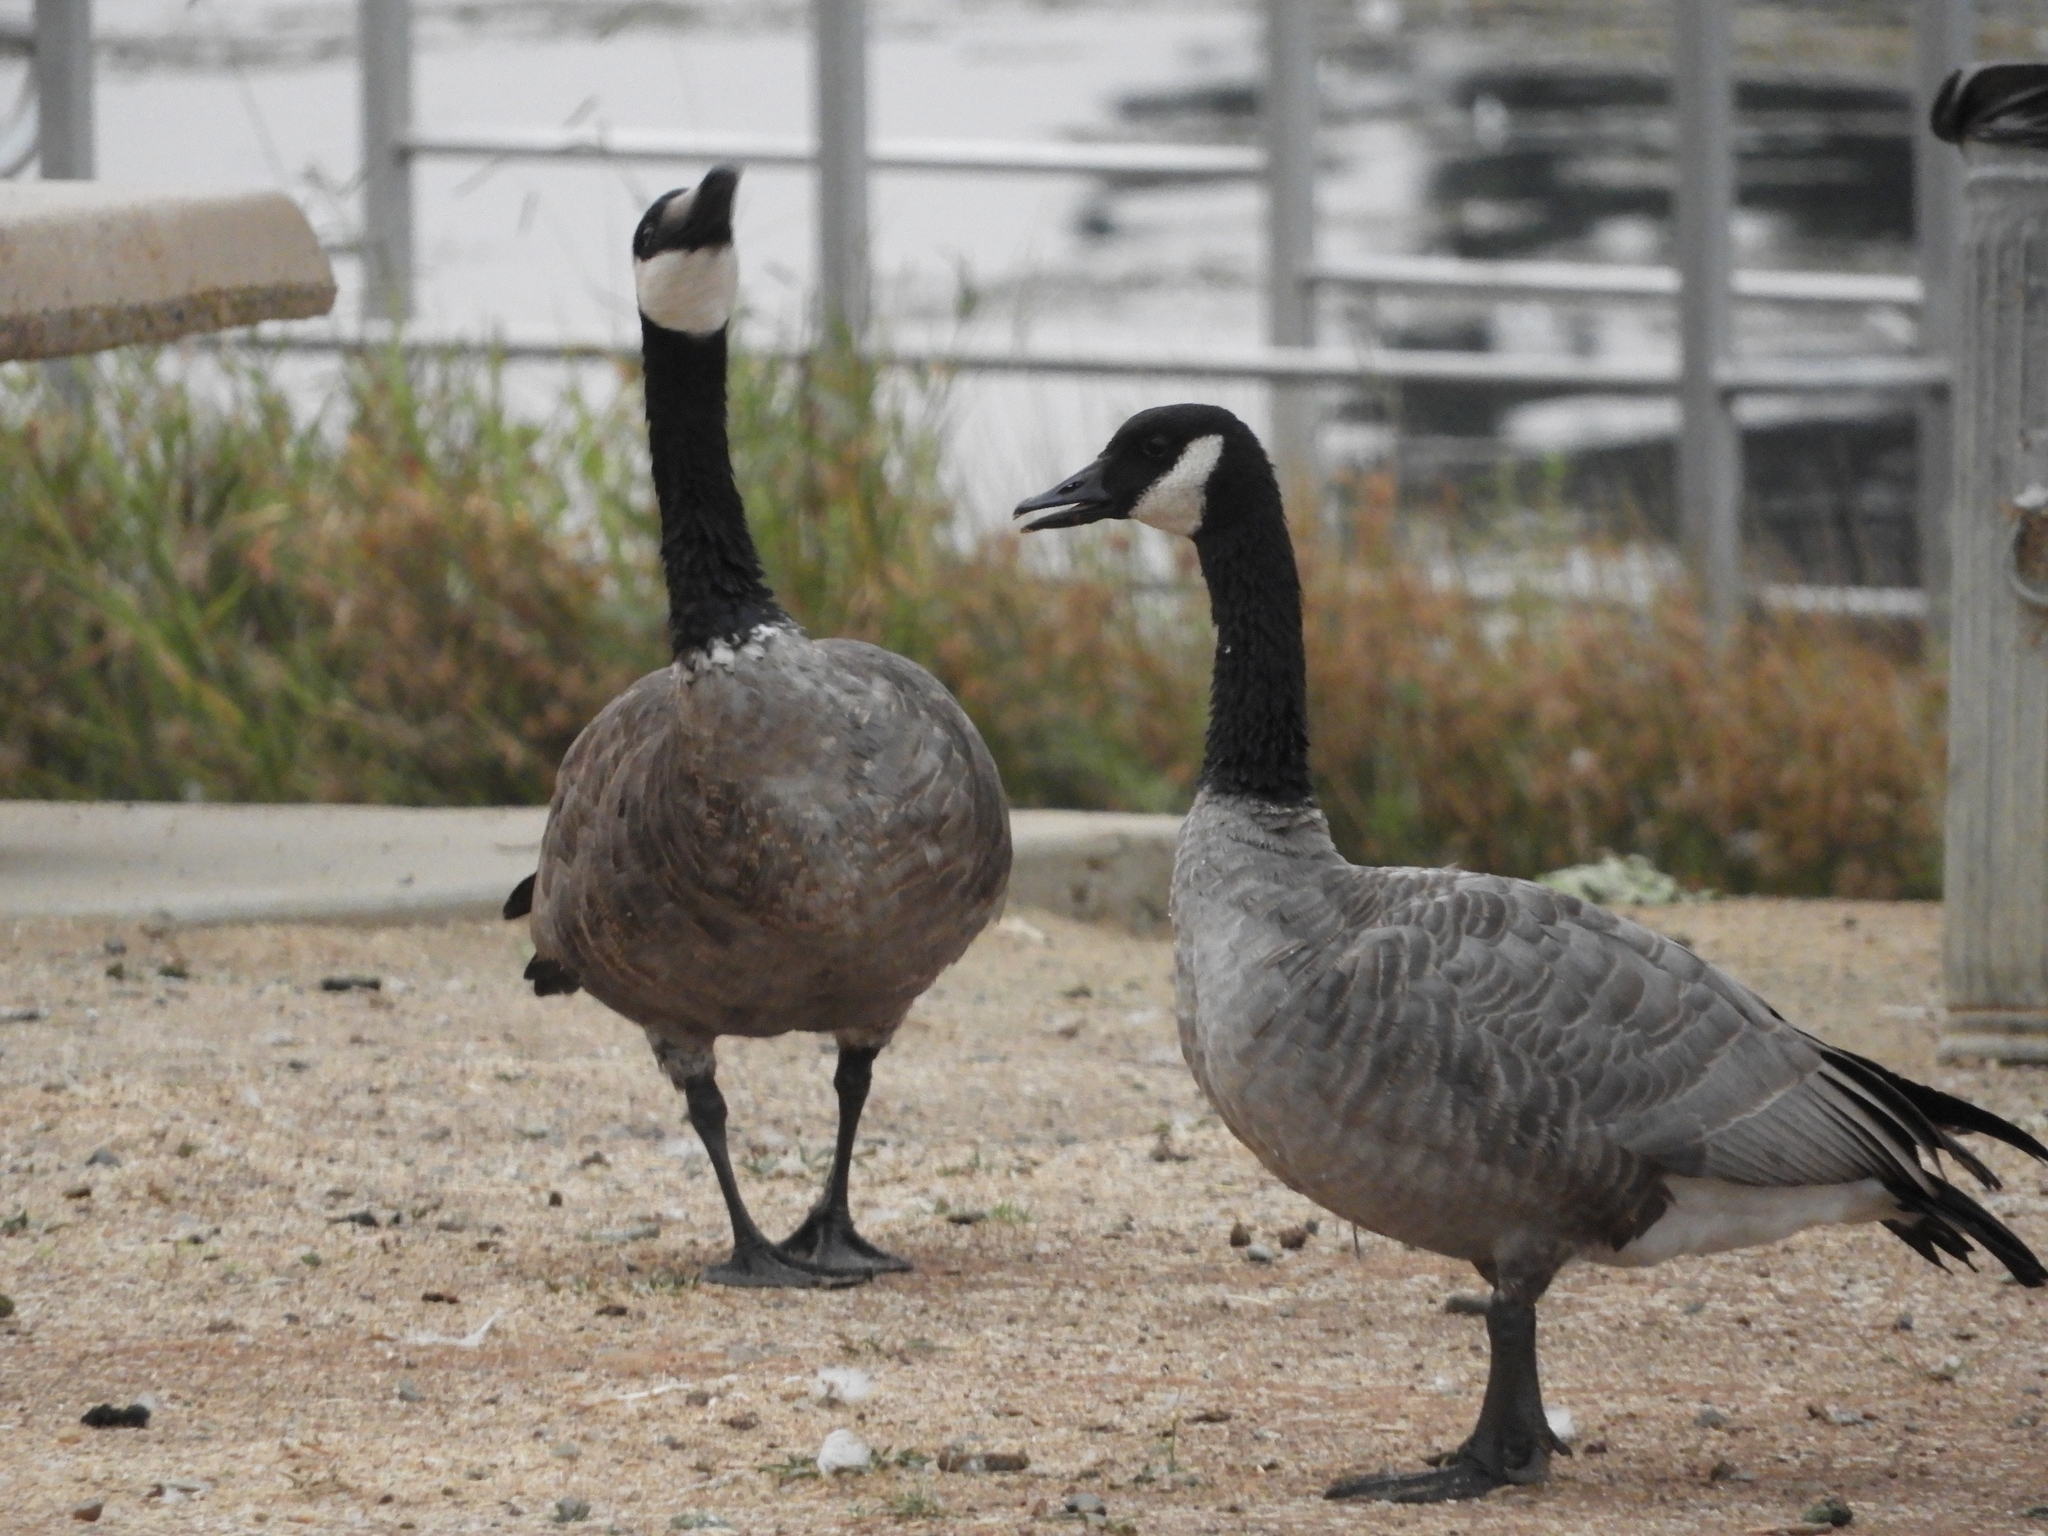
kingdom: Animalia
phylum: Chordata
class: Aves
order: Anseriformes
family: Anatidae
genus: Branta
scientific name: Branta canadensis
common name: Canada goose
